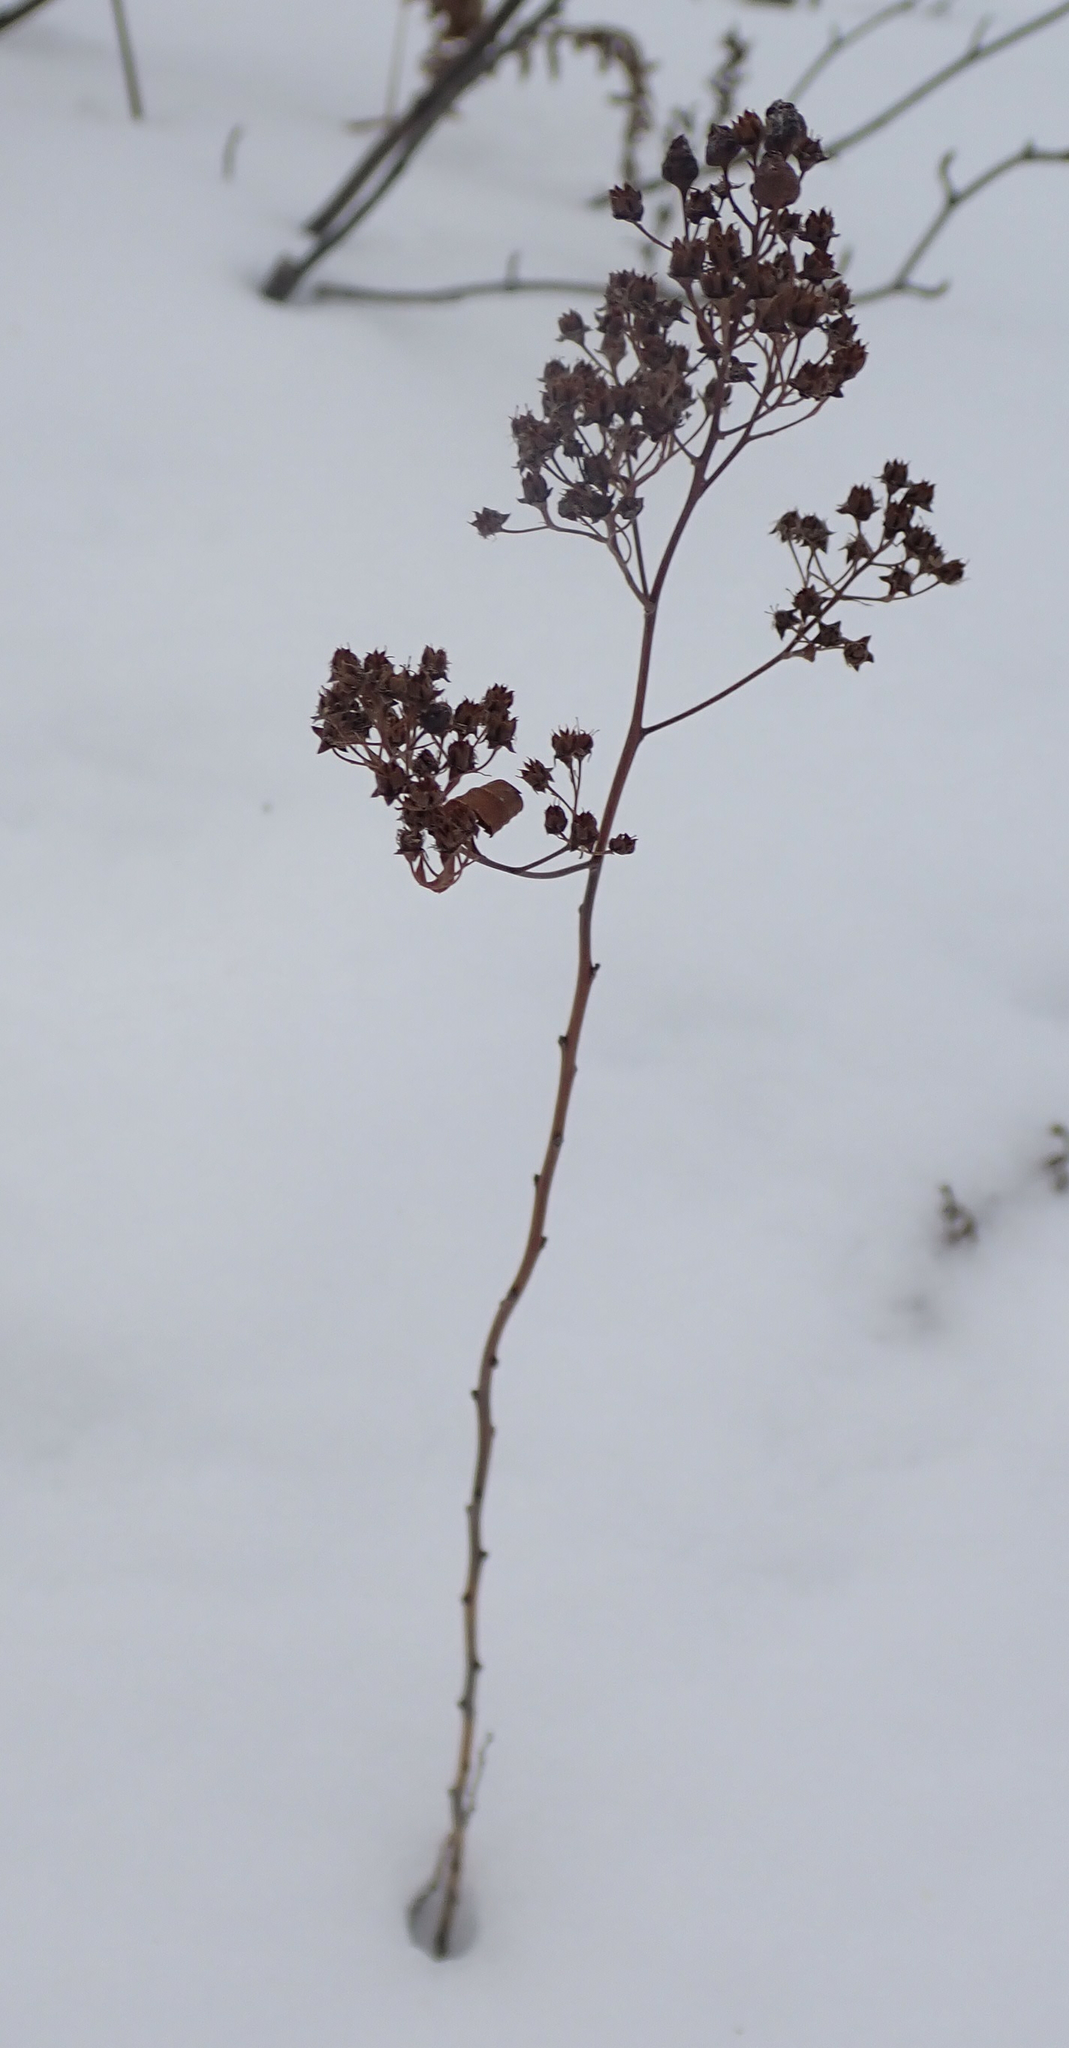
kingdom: Plantae
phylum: Tracheophyta
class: Magnoliopsida
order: Rosales
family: Rosaceae
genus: Spiraea
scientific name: Spiraea alba
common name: Pale bridewort
